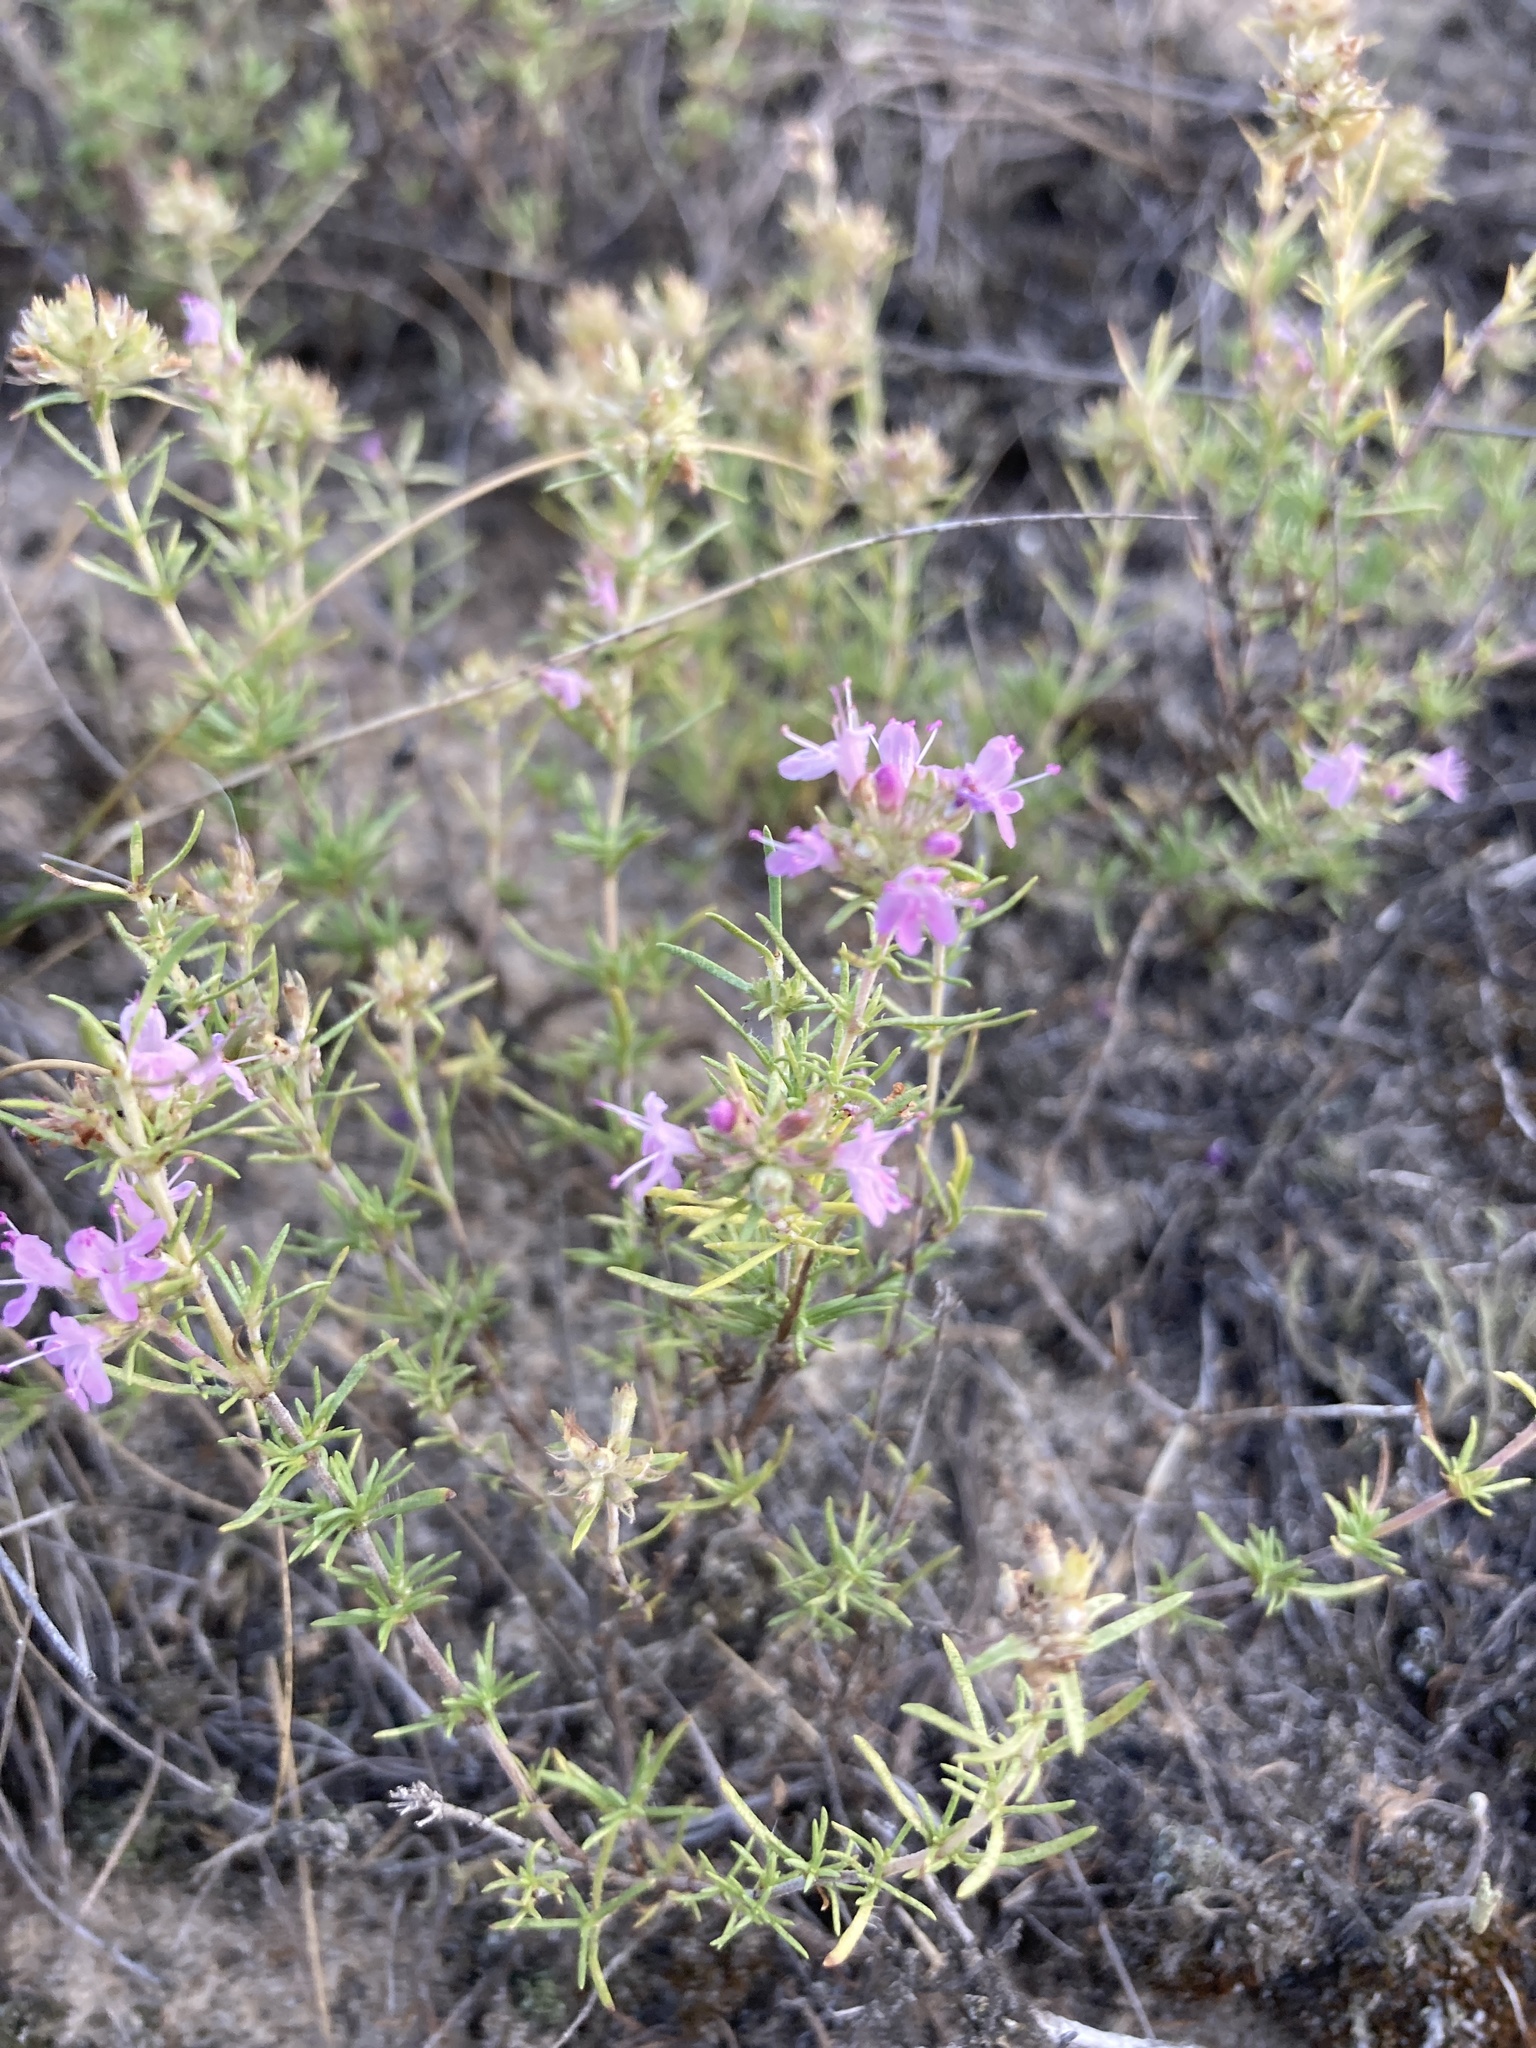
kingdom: Plantae
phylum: Tracheophyta
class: Magnoliopsida
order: Lamiales
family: Lamiaceae
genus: Thymus
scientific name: Thymus pallasianus
